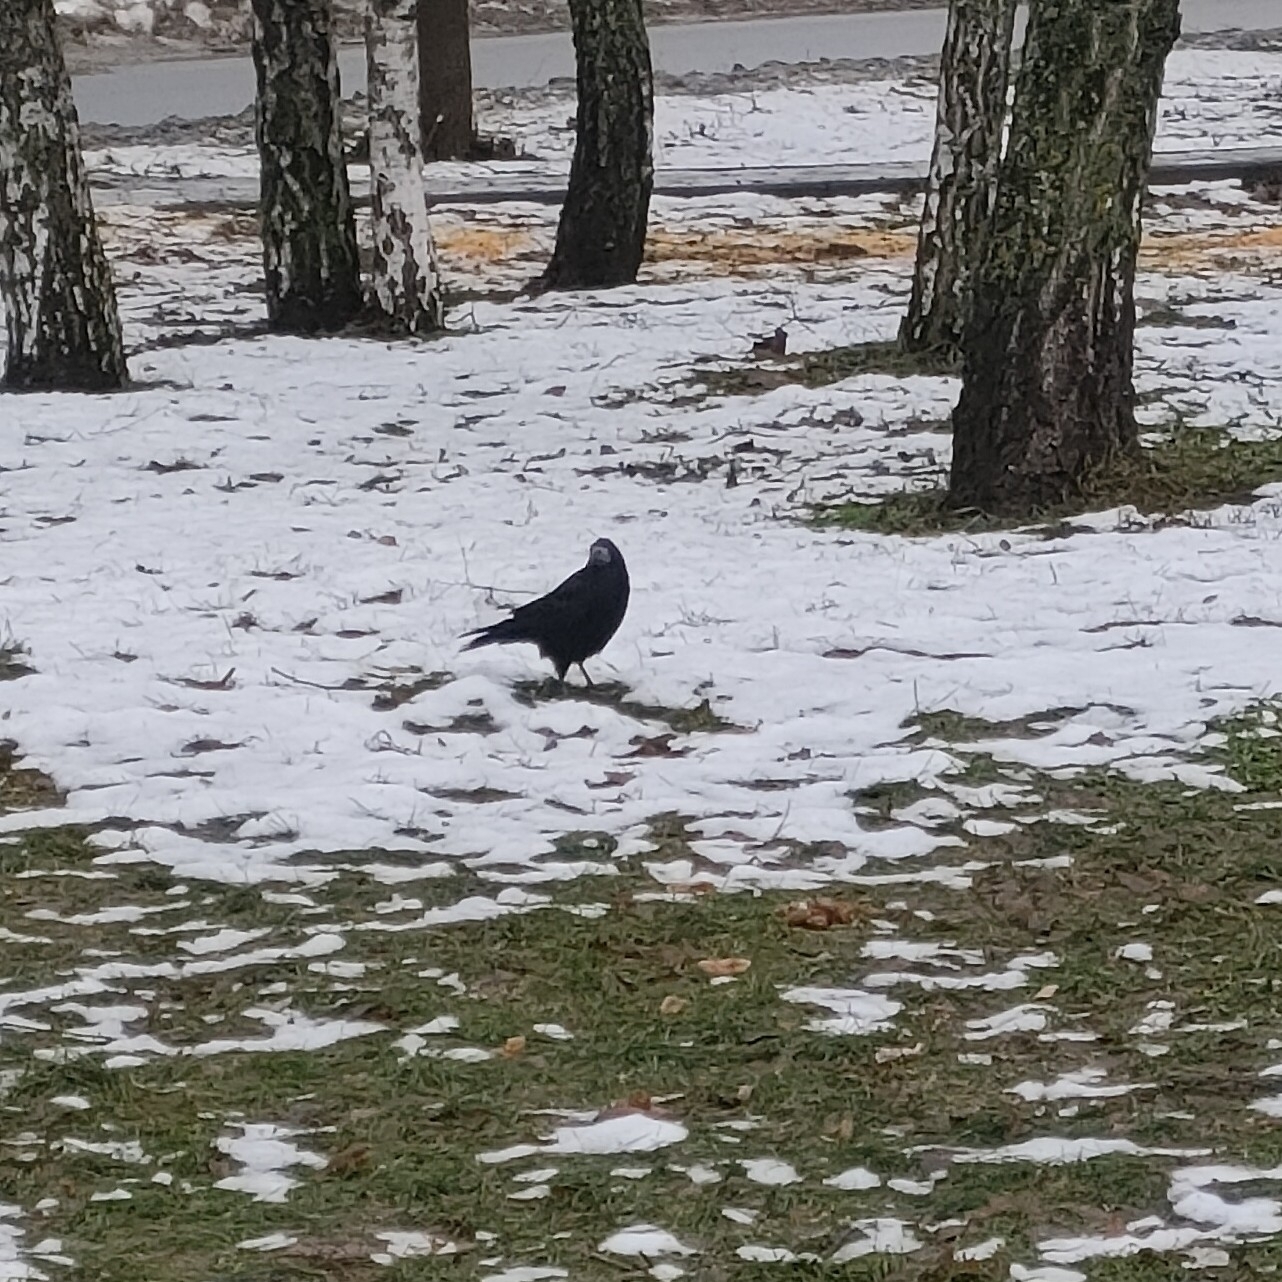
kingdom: Animalia
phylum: Chordata
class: Aves
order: Passeriformes
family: Corvidae
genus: Corvus
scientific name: Corvus frugilegus
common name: Rook
